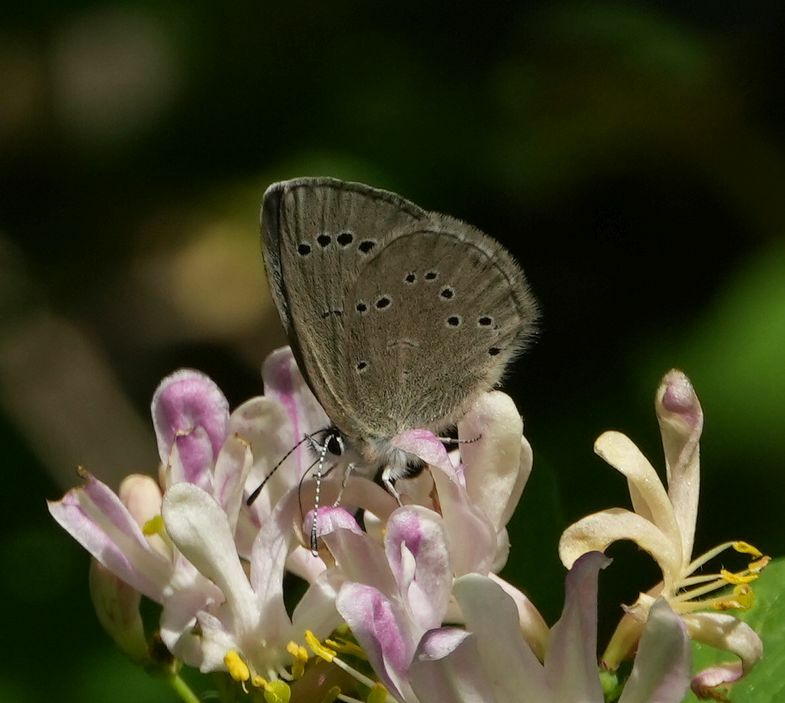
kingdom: Animalia
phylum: Arthropoda
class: Insecta
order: Lepidoptera
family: Lycaenidae
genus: Glaucopsyche
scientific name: Glaucopsyche lygdamus
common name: Silvery blue
